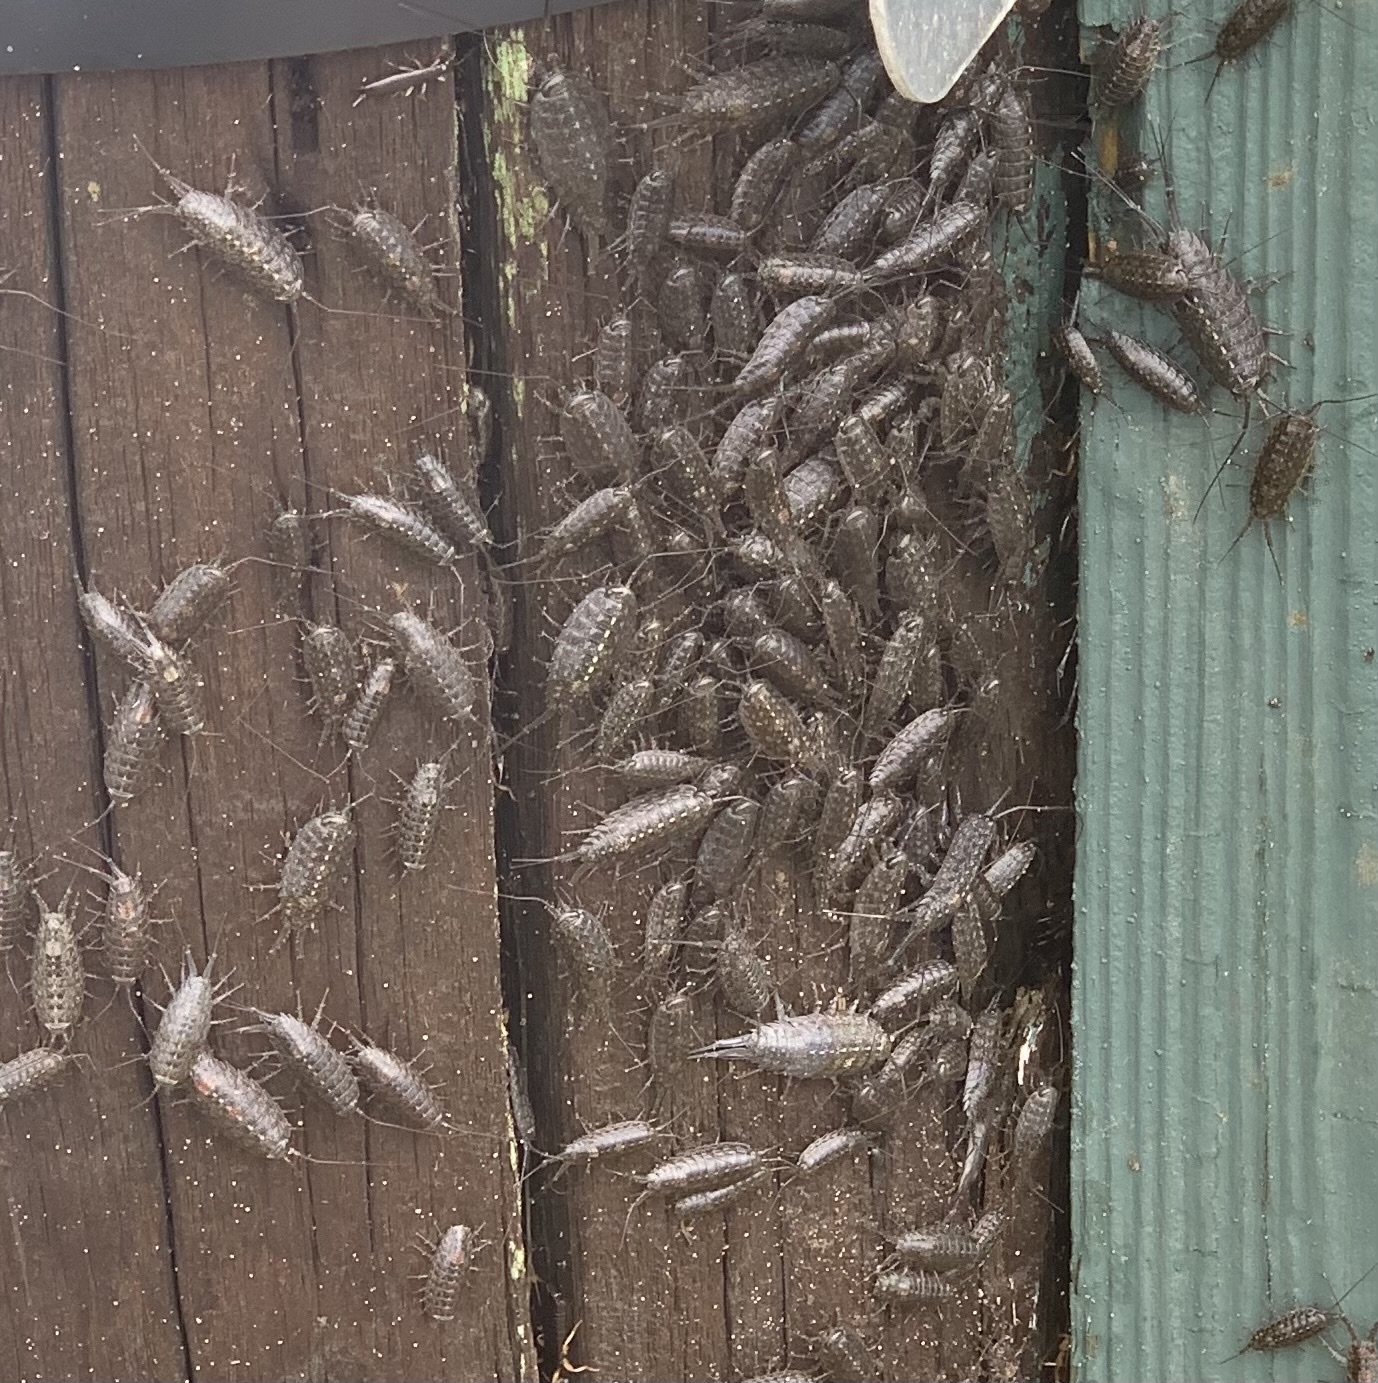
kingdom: Animalia
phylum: Arthropoda
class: Malacostraca
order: Isopoda
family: Ligiidae
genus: Ligia
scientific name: Ligia exotica
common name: Wharf roach
